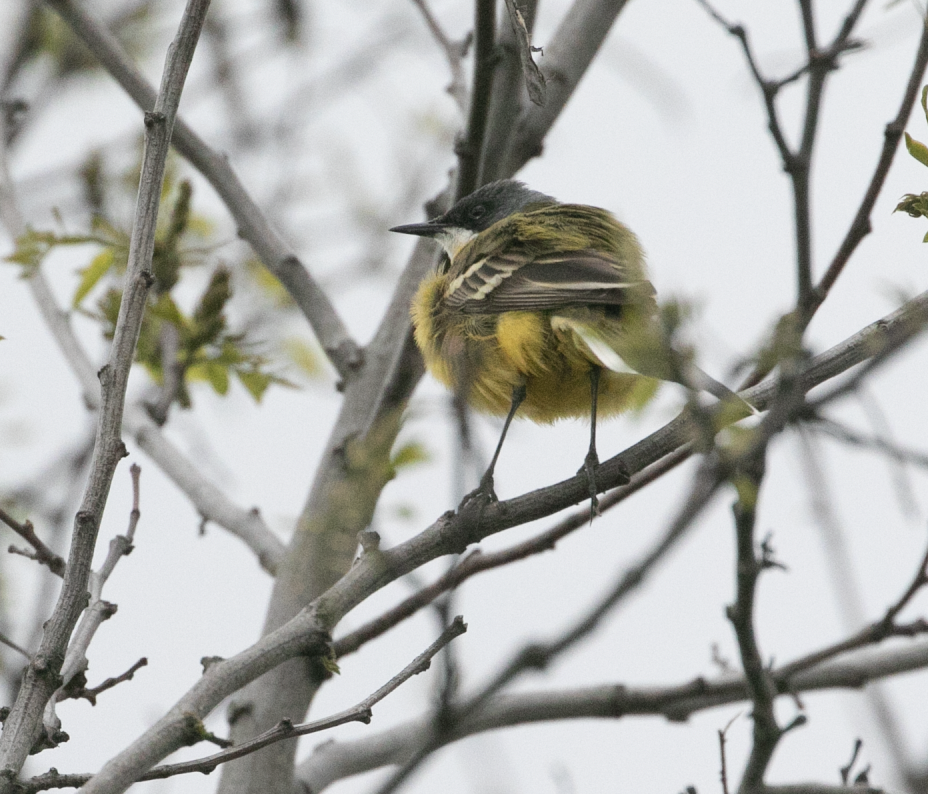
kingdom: Animalia
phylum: Chordata
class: Aves
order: Passeriformes
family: Motacillidae
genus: Motacilla
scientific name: Motacilla flava
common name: Western yellow wagtail
